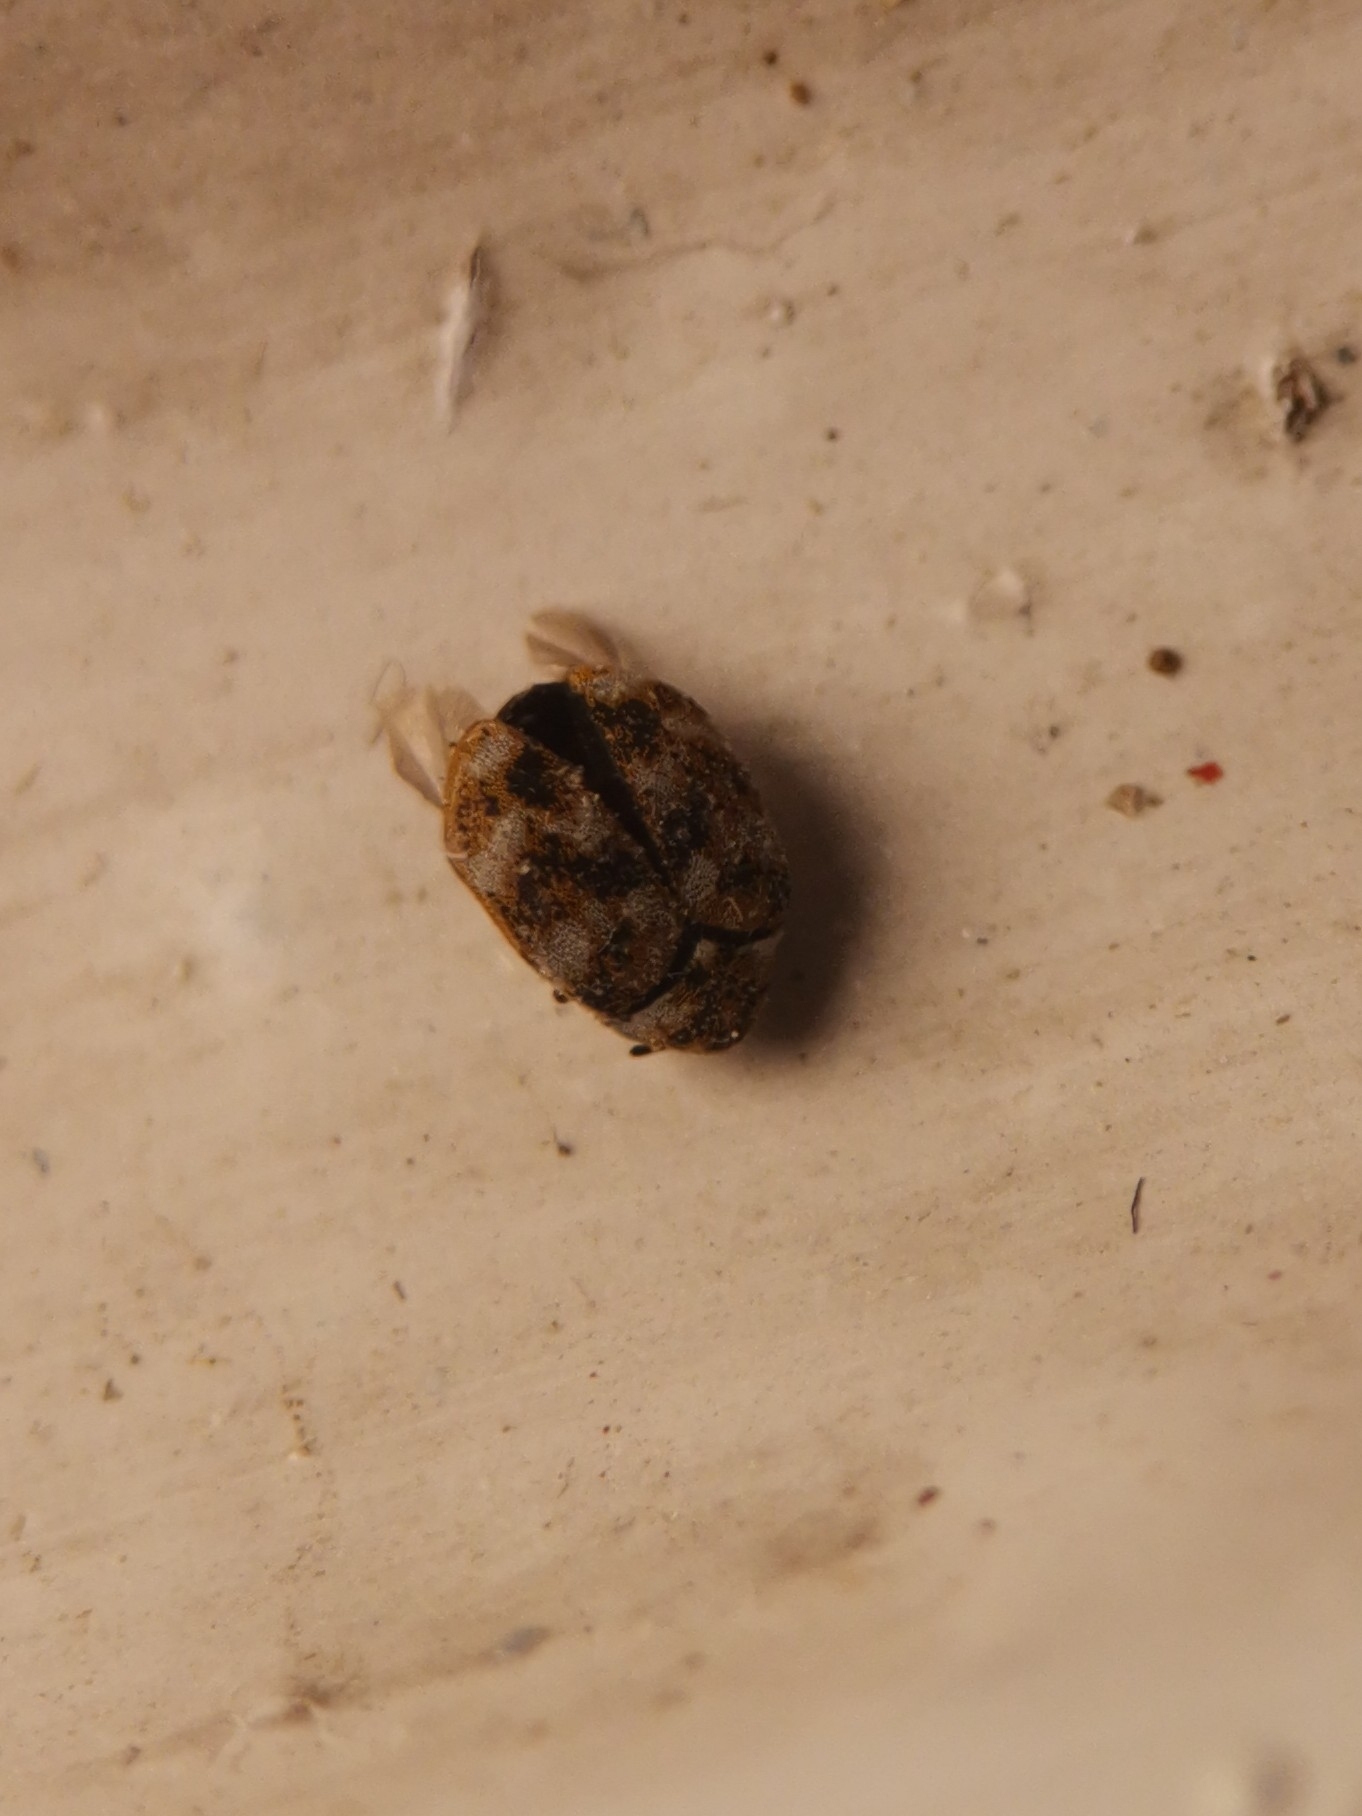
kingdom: Animalia
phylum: Arthropoda
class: Insecta
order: Coleoptera
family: Dermestidae
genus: Anthrenus
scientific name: Anthrenus verbasci
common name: Varied carpet beetle
